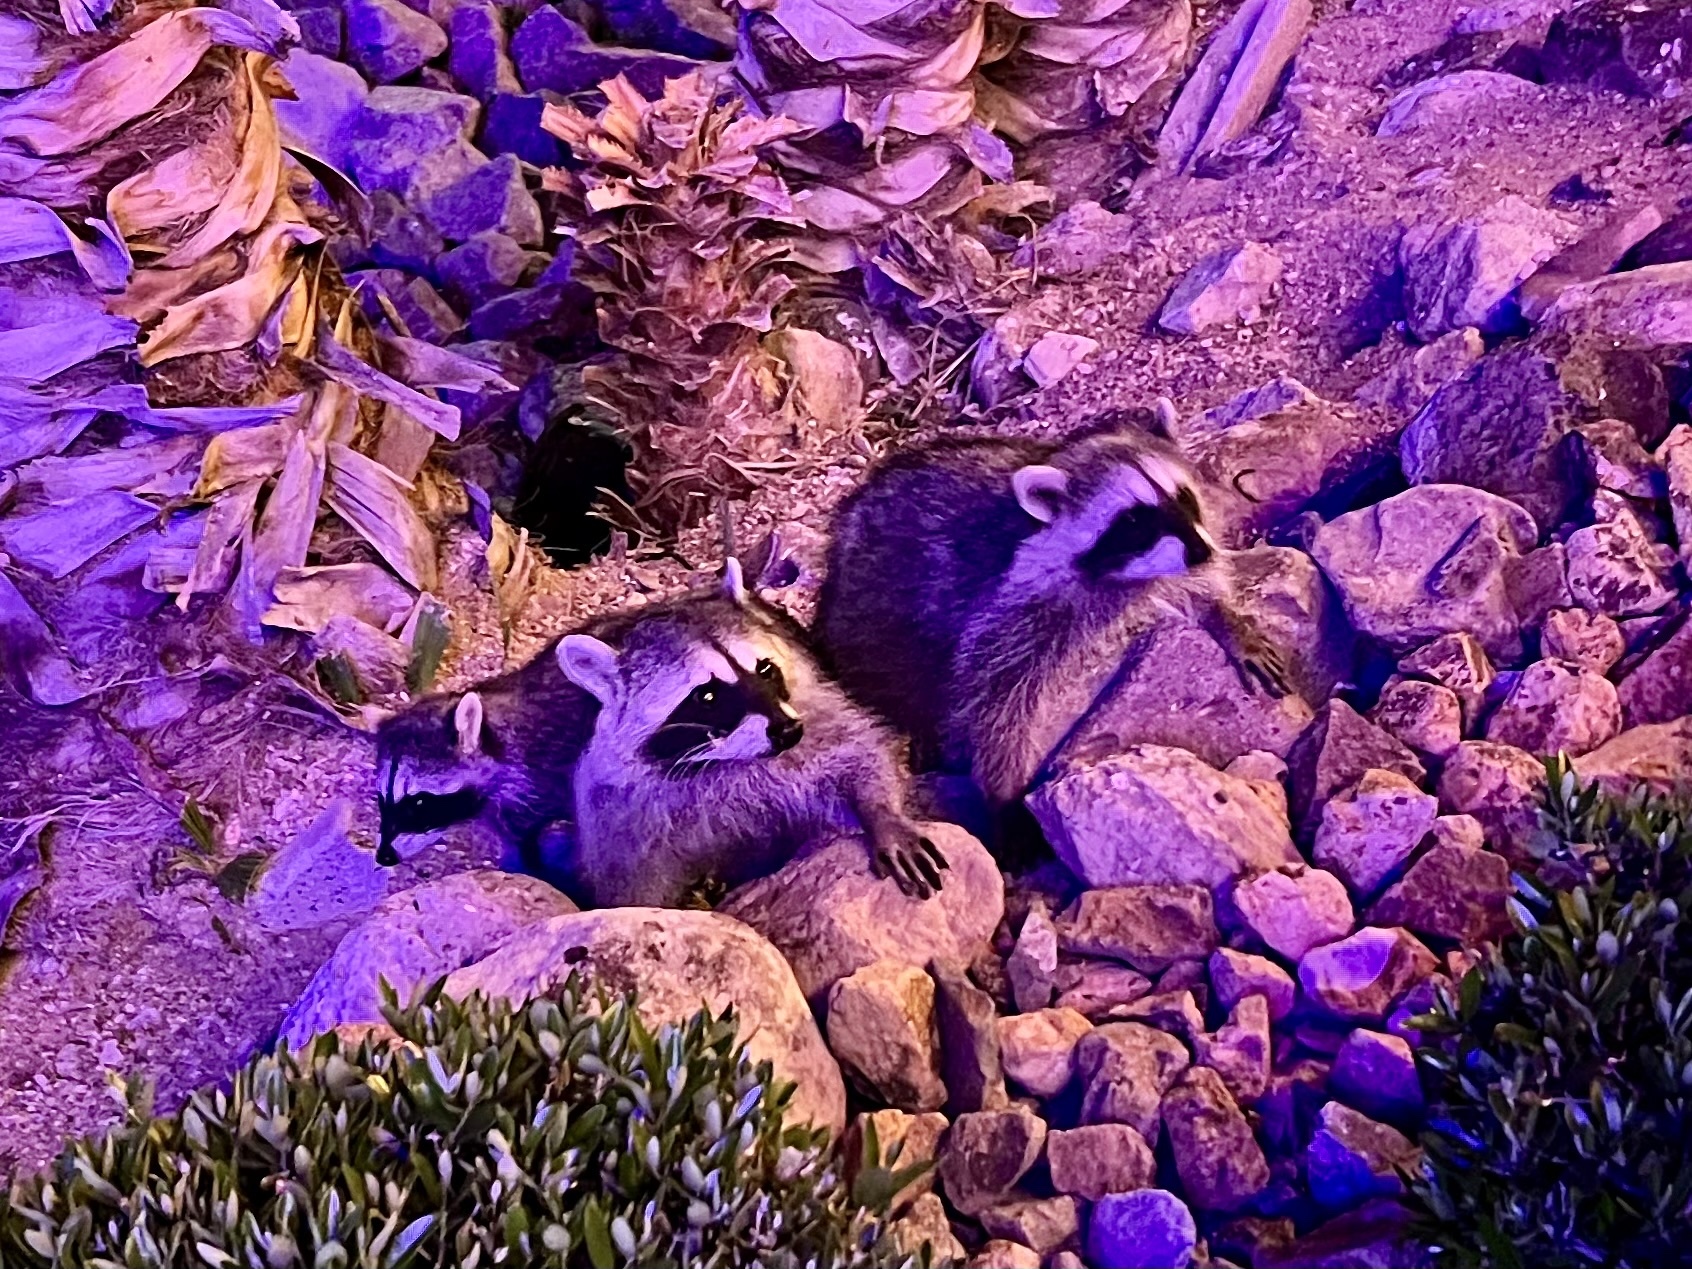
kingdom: Animalia
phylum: Chordata
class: Mammalia
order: Carnivora
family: Procyonidae
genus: Procyon
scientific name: Procyon lotor
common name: Raccoon
